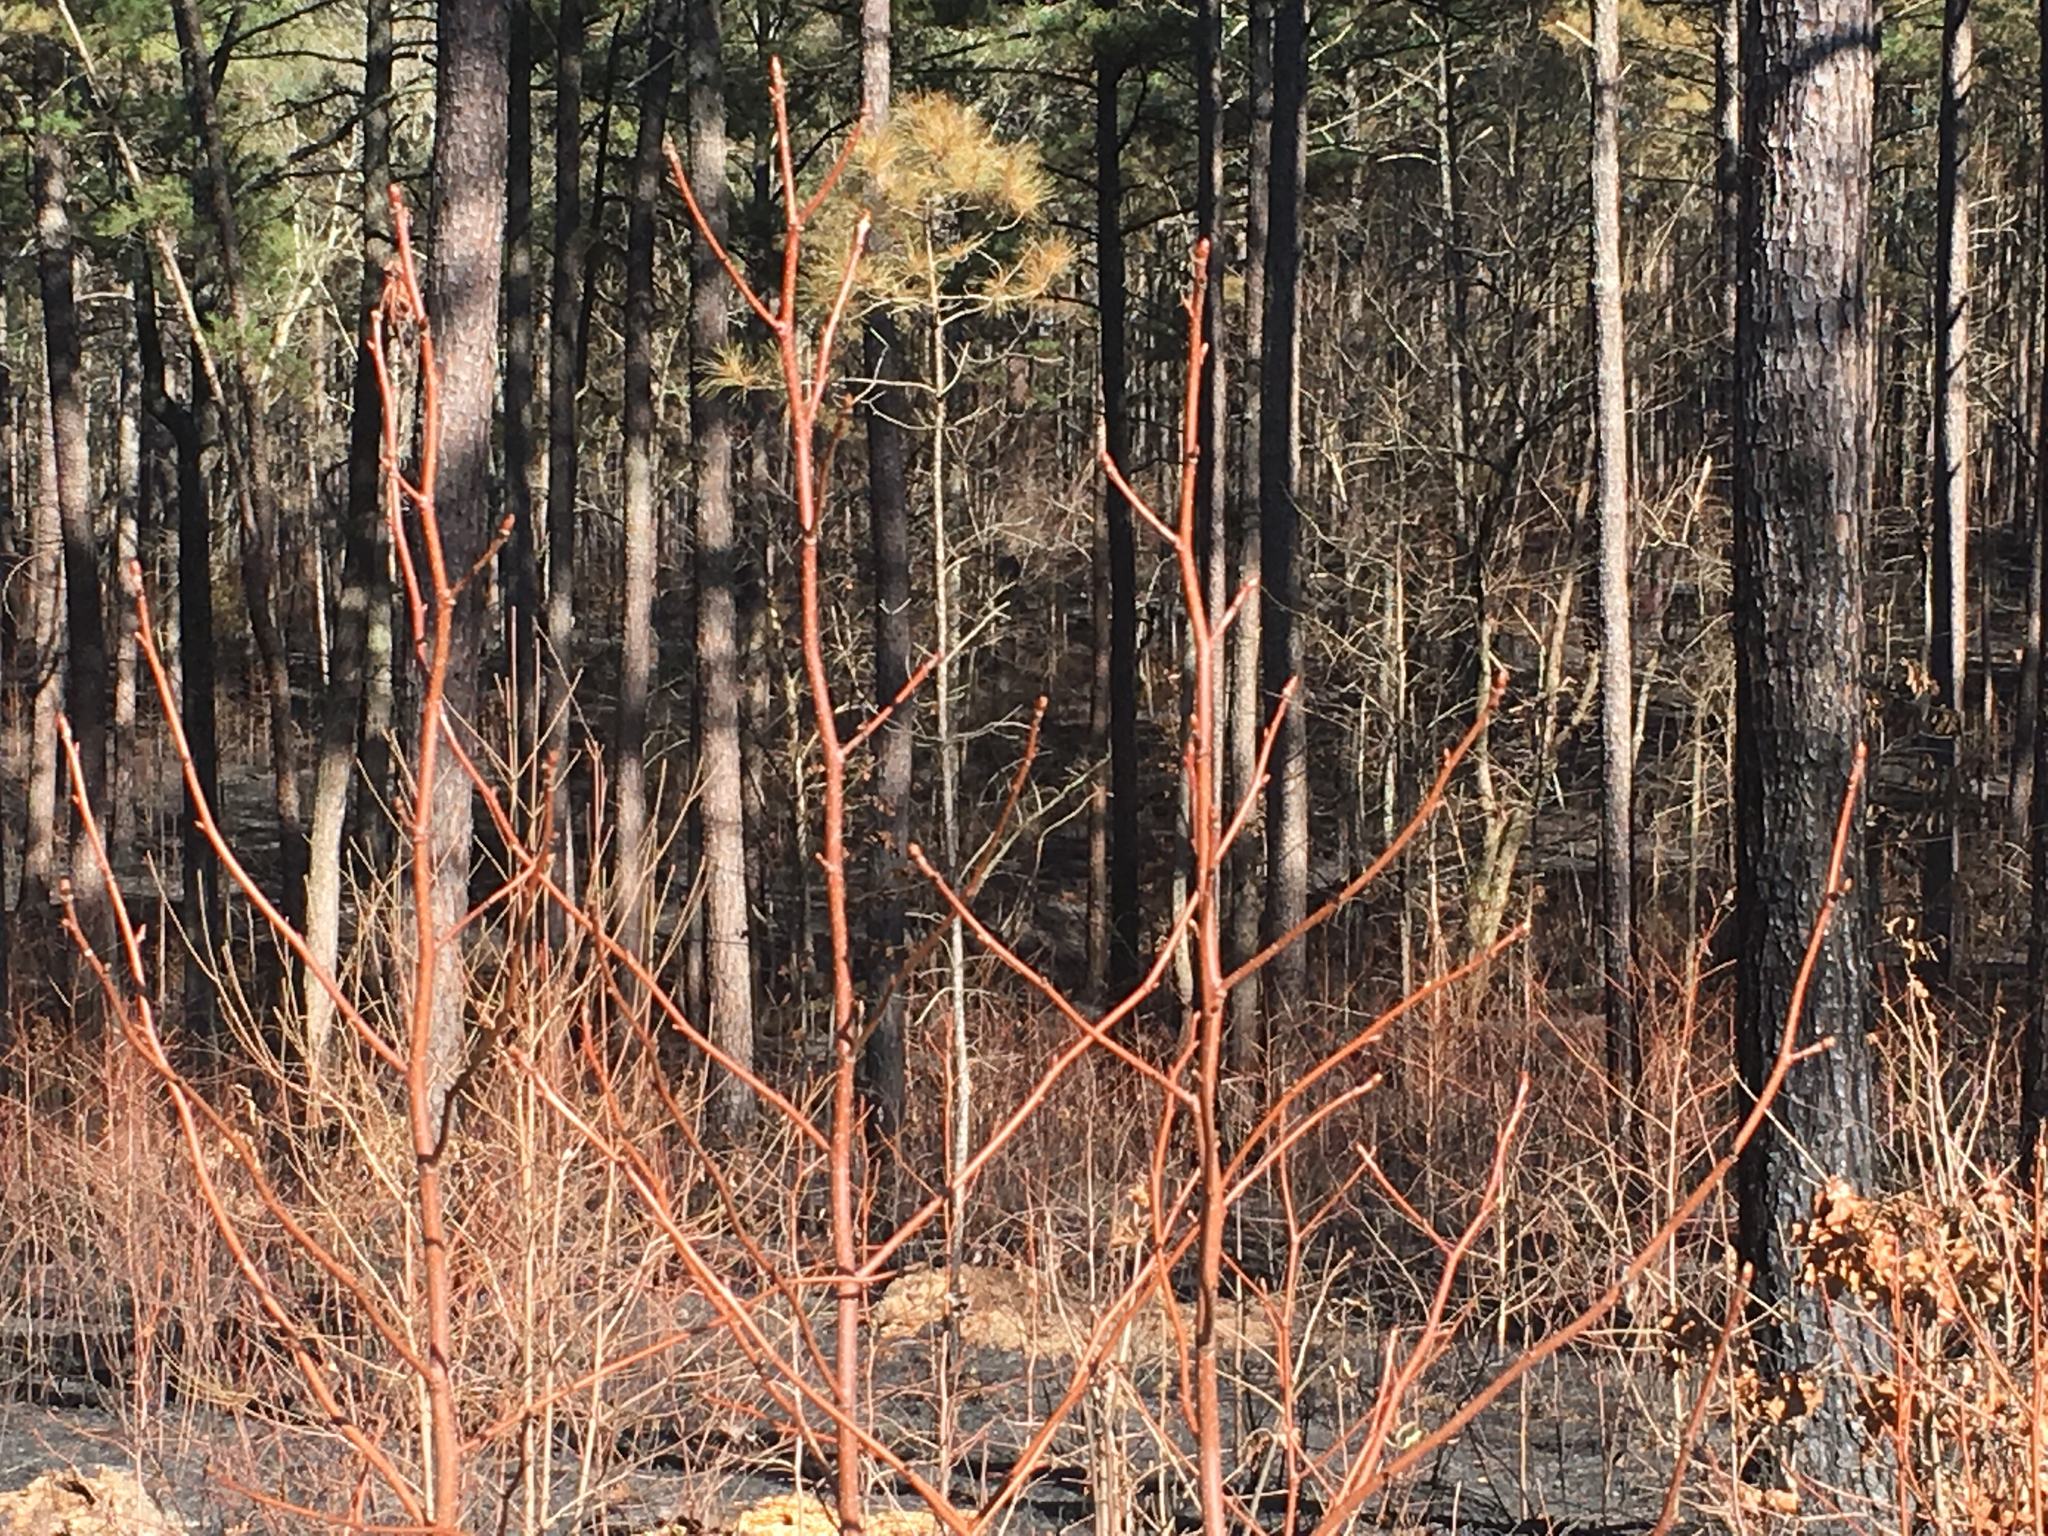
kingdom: Plantae
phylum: Tracheophyta
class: Magnoliopsida
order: Saxifragales
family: Altingiaceae
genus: Liquidambar
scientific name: Liquidambar styraciflua
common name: Sweet gum
